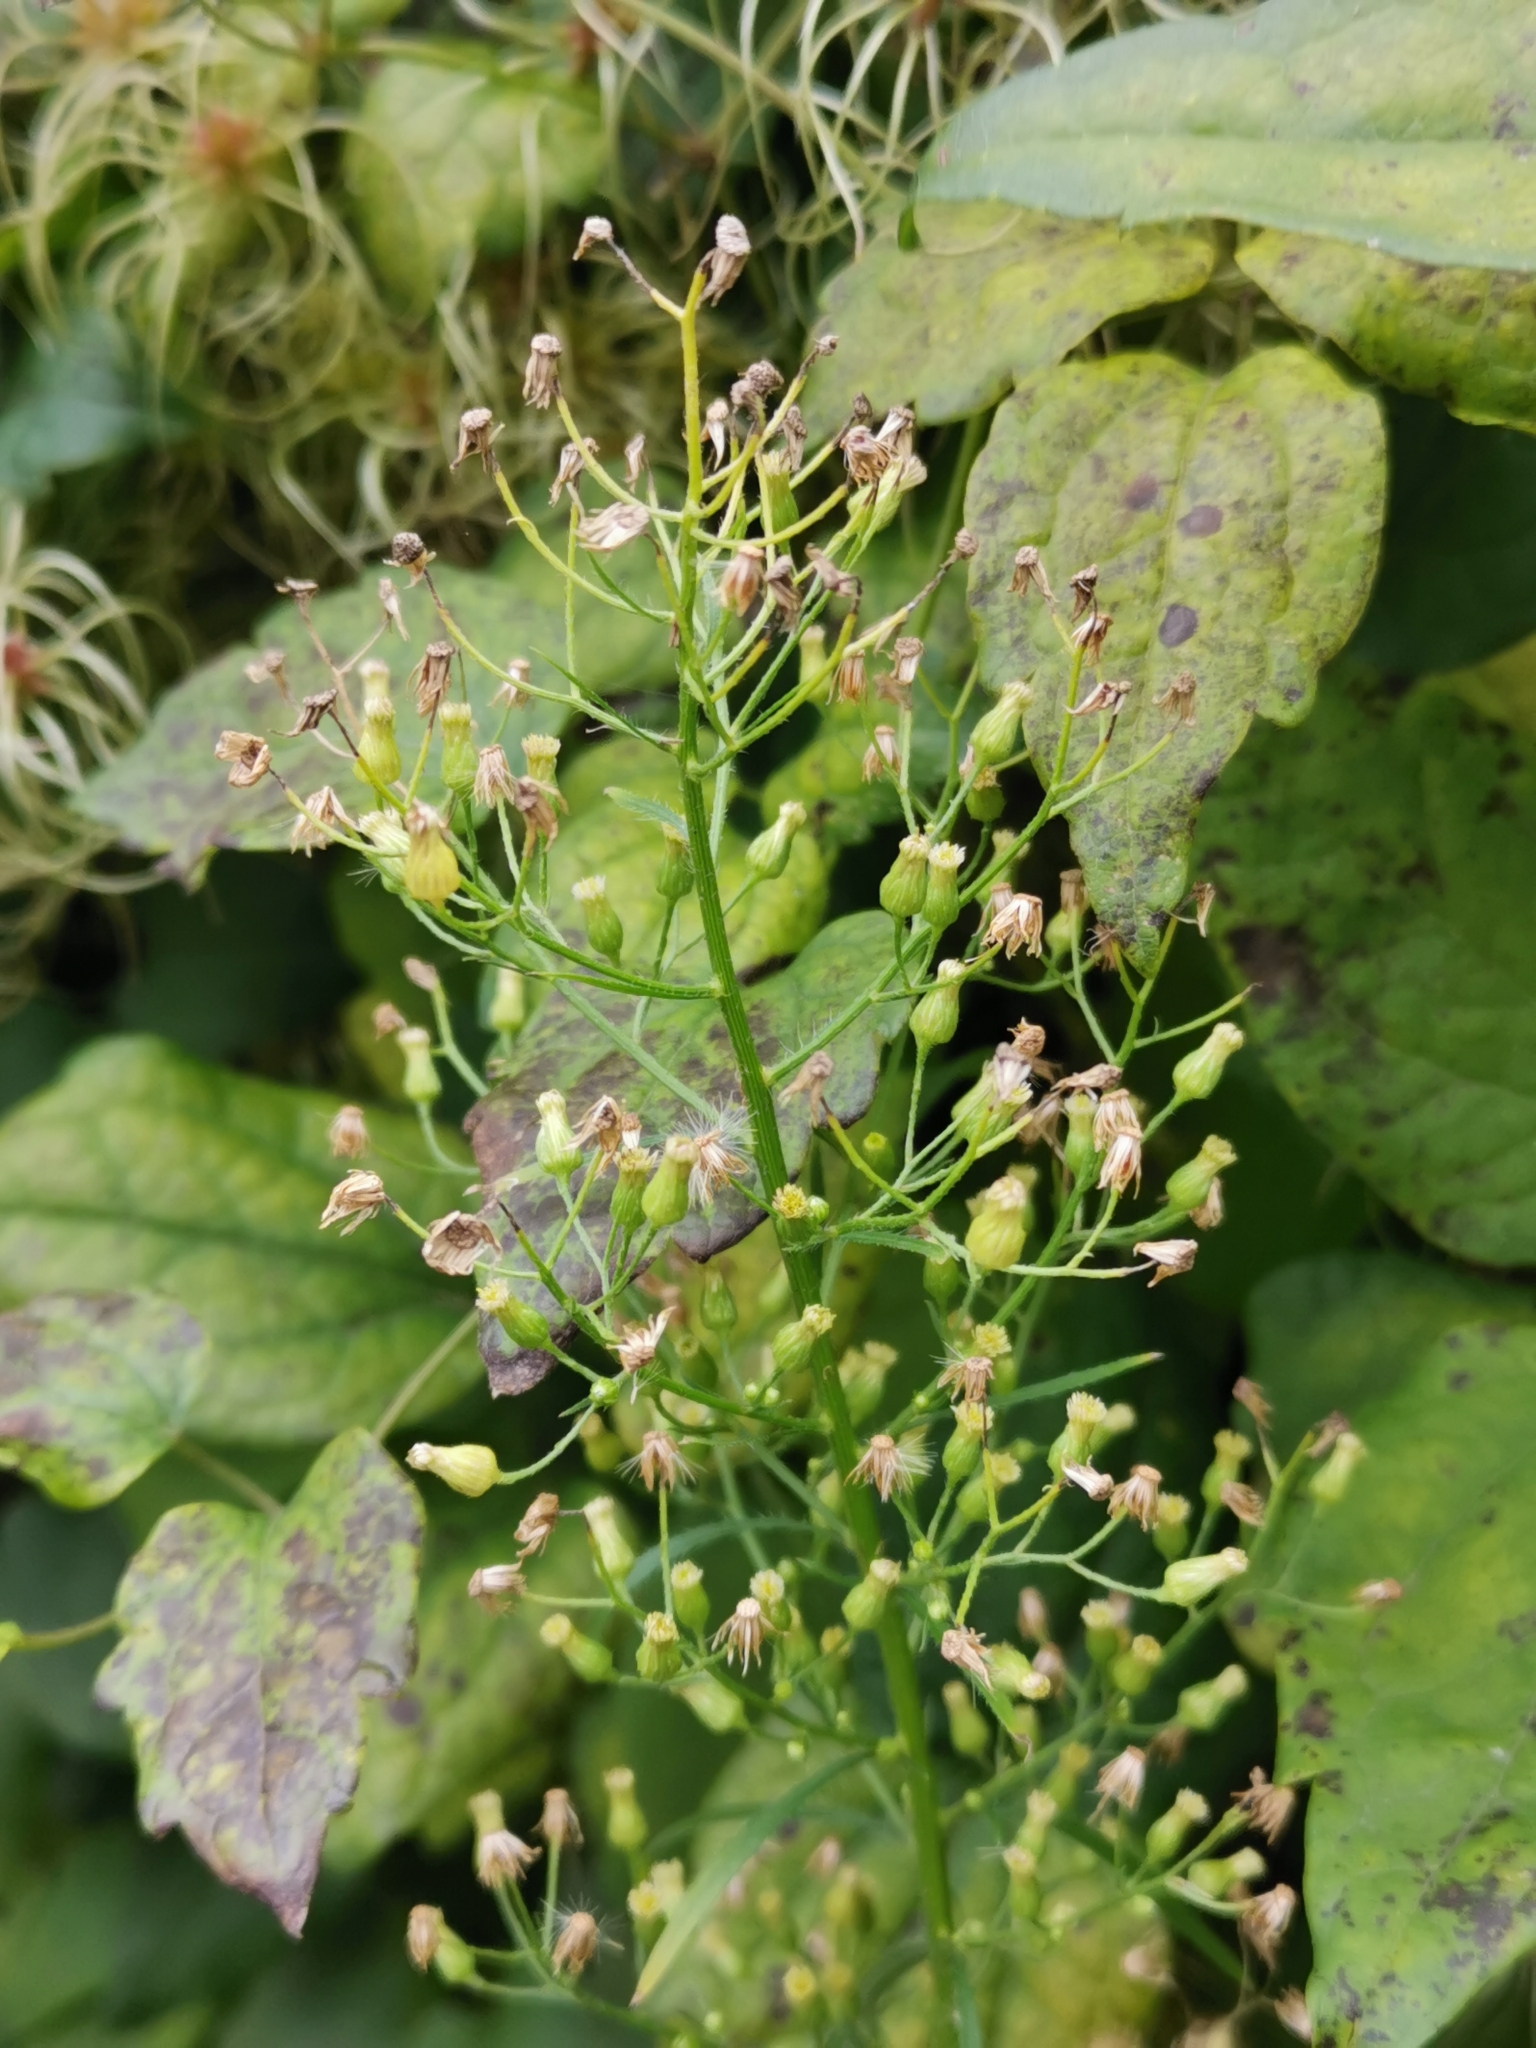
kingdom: Plantae
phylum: Tracheophyta
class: Magnoliopsida
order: Asterales
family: Asteraceae
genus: Erigeron
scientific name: Erigeron canadensis
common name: Canadian fleabane
